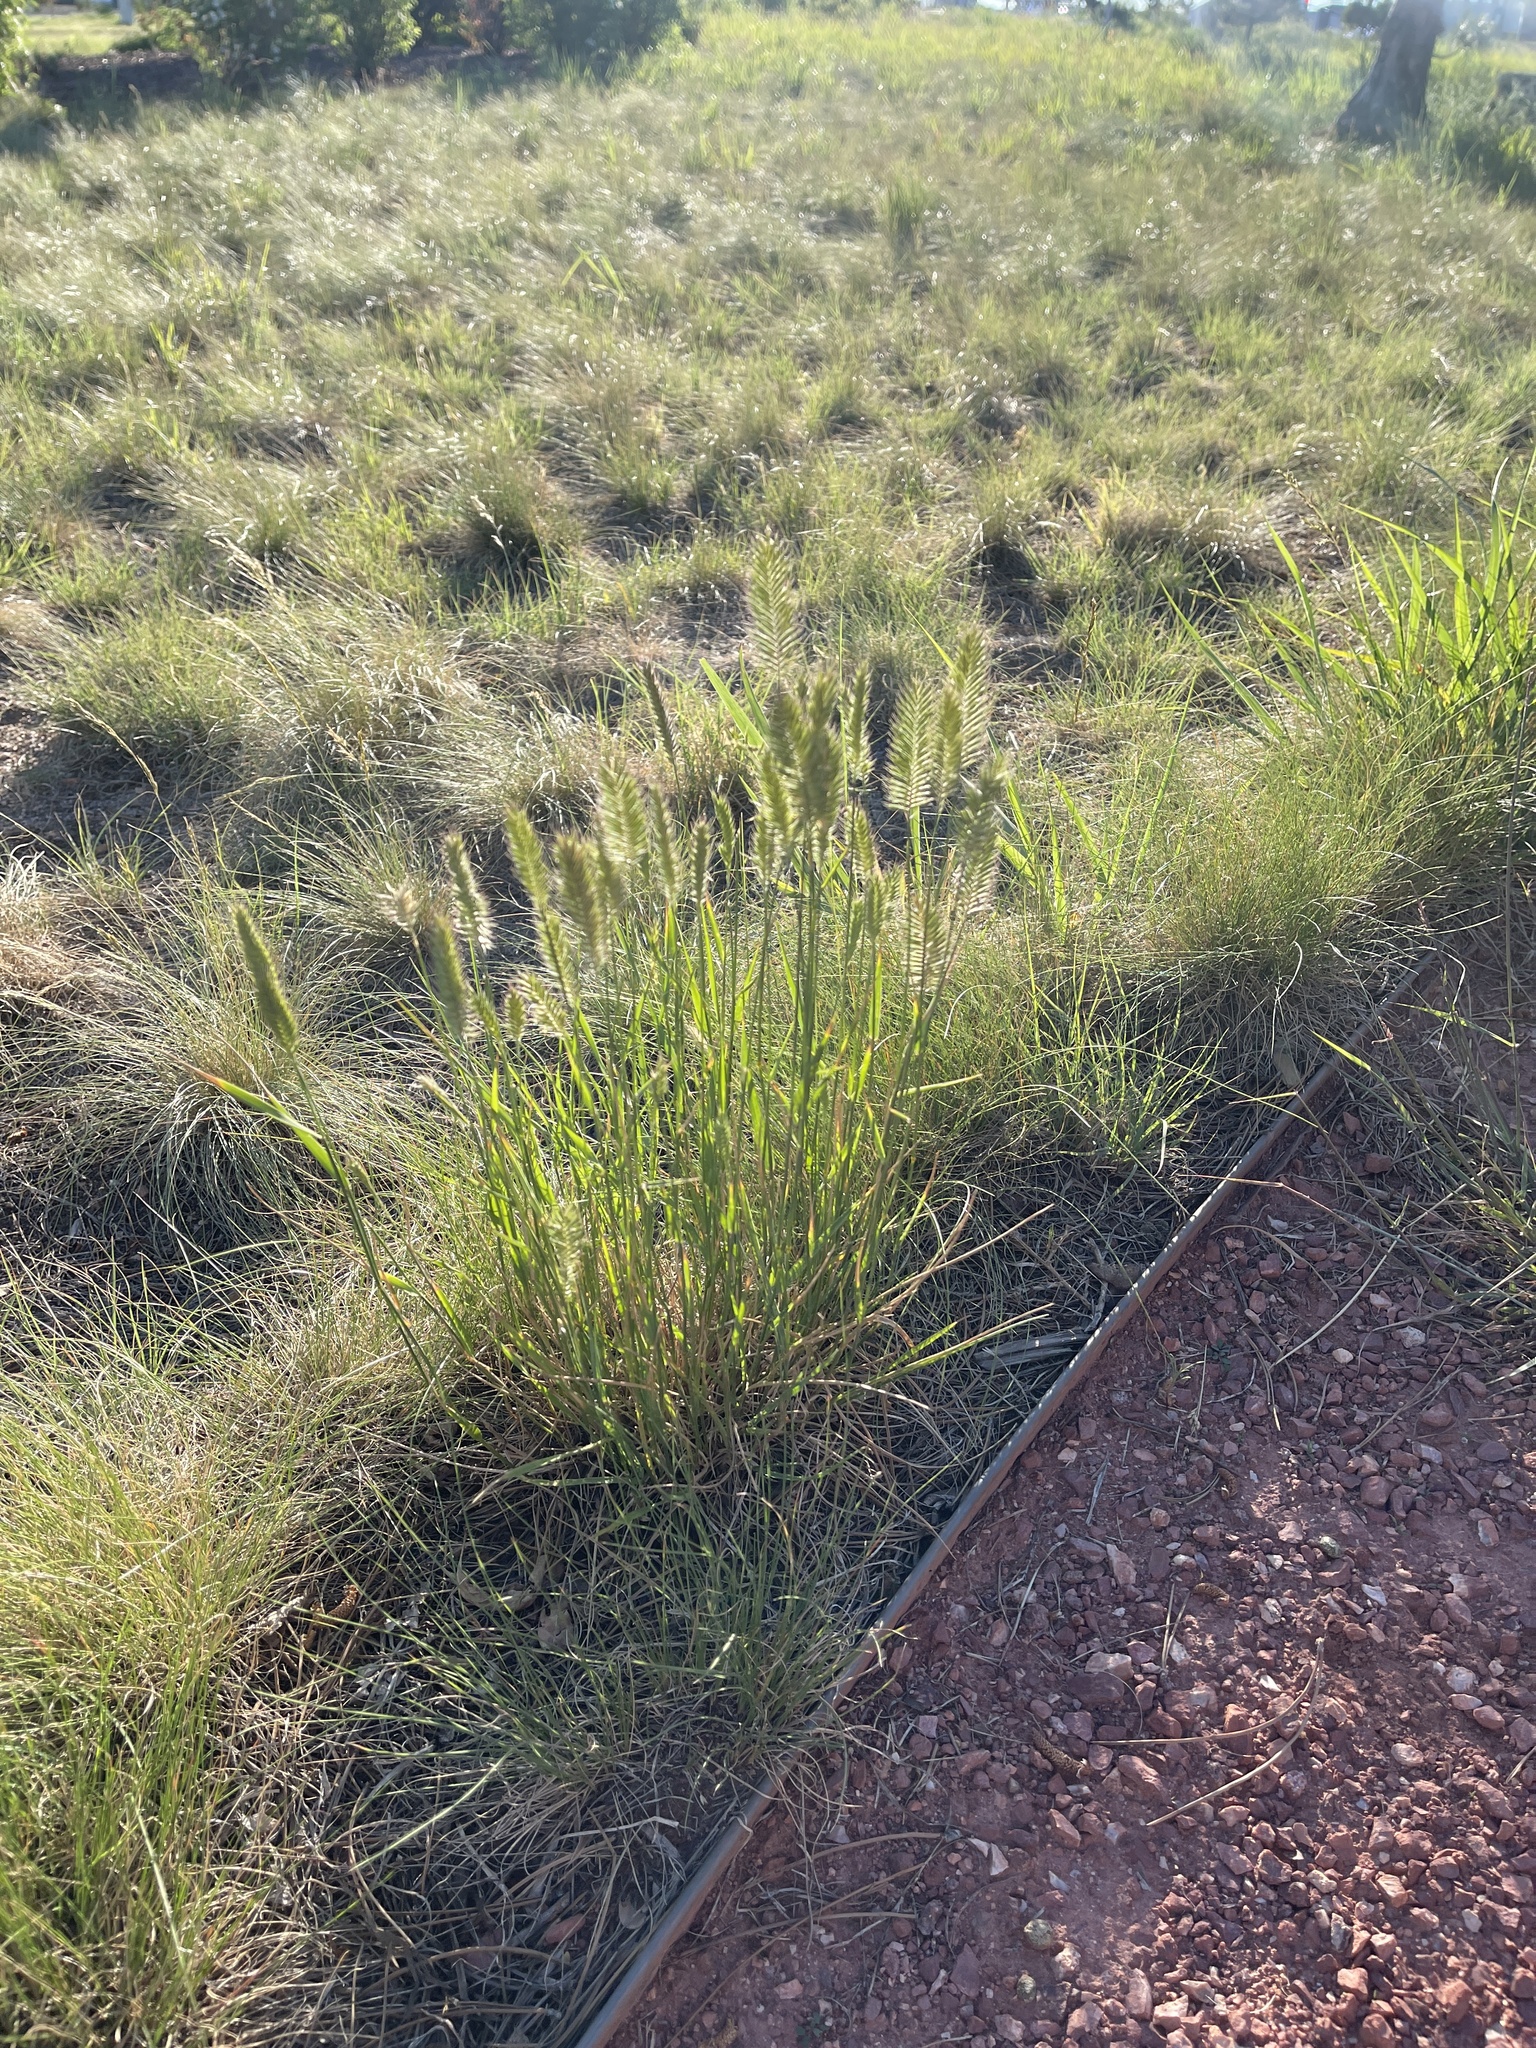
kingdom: Plantae
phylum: Tracheophyta
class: Liliopsida
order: Poales
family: Poaceae
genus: Agropyron
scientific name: Agropyron cristatum
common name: Crested wheatgrass
